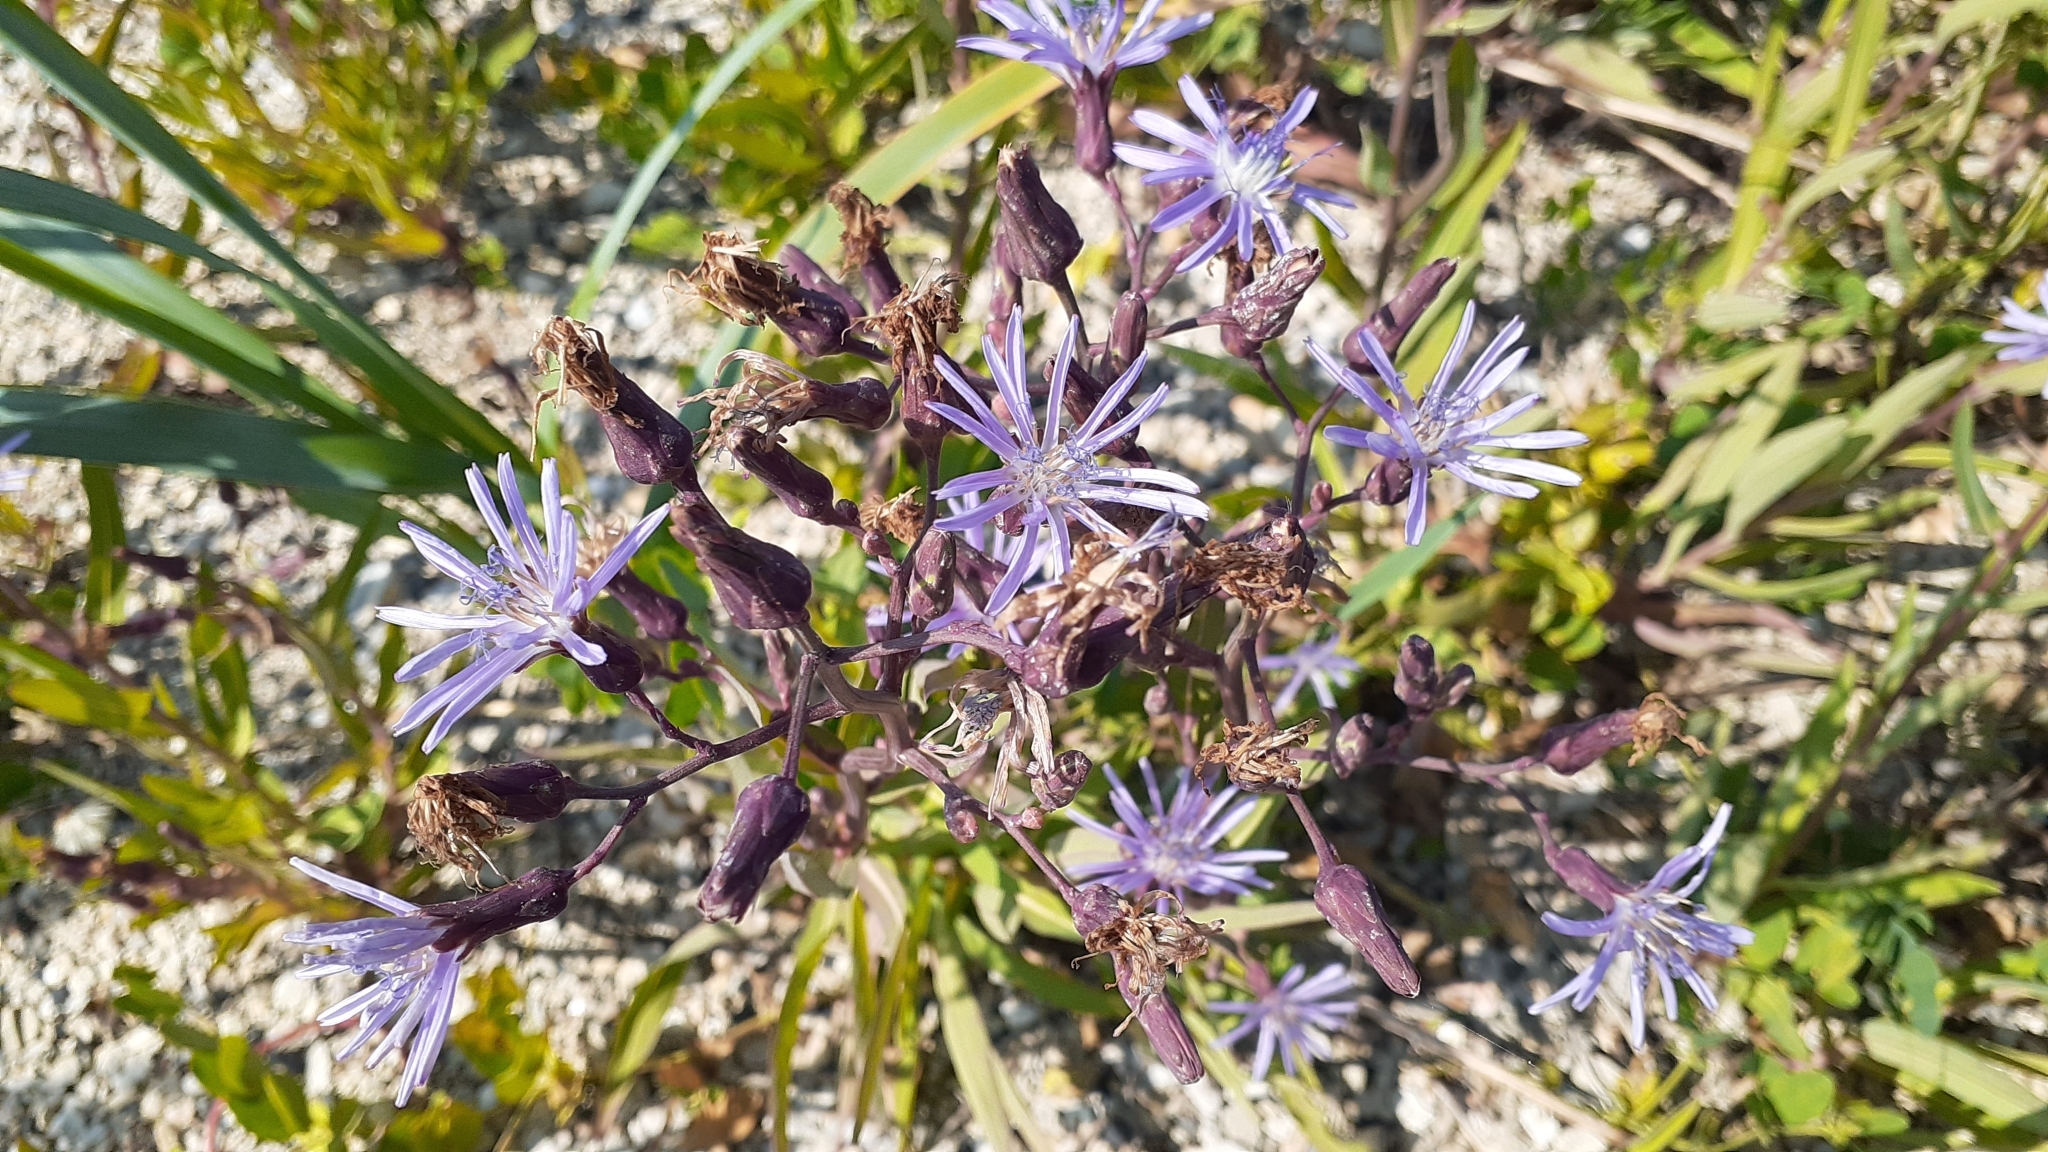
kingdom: Plantae
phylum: Tracheophyta
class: Magnoliopsida
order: Asterales
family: Asteraceae
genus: Lactuca
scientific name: Lactuca pulchella
